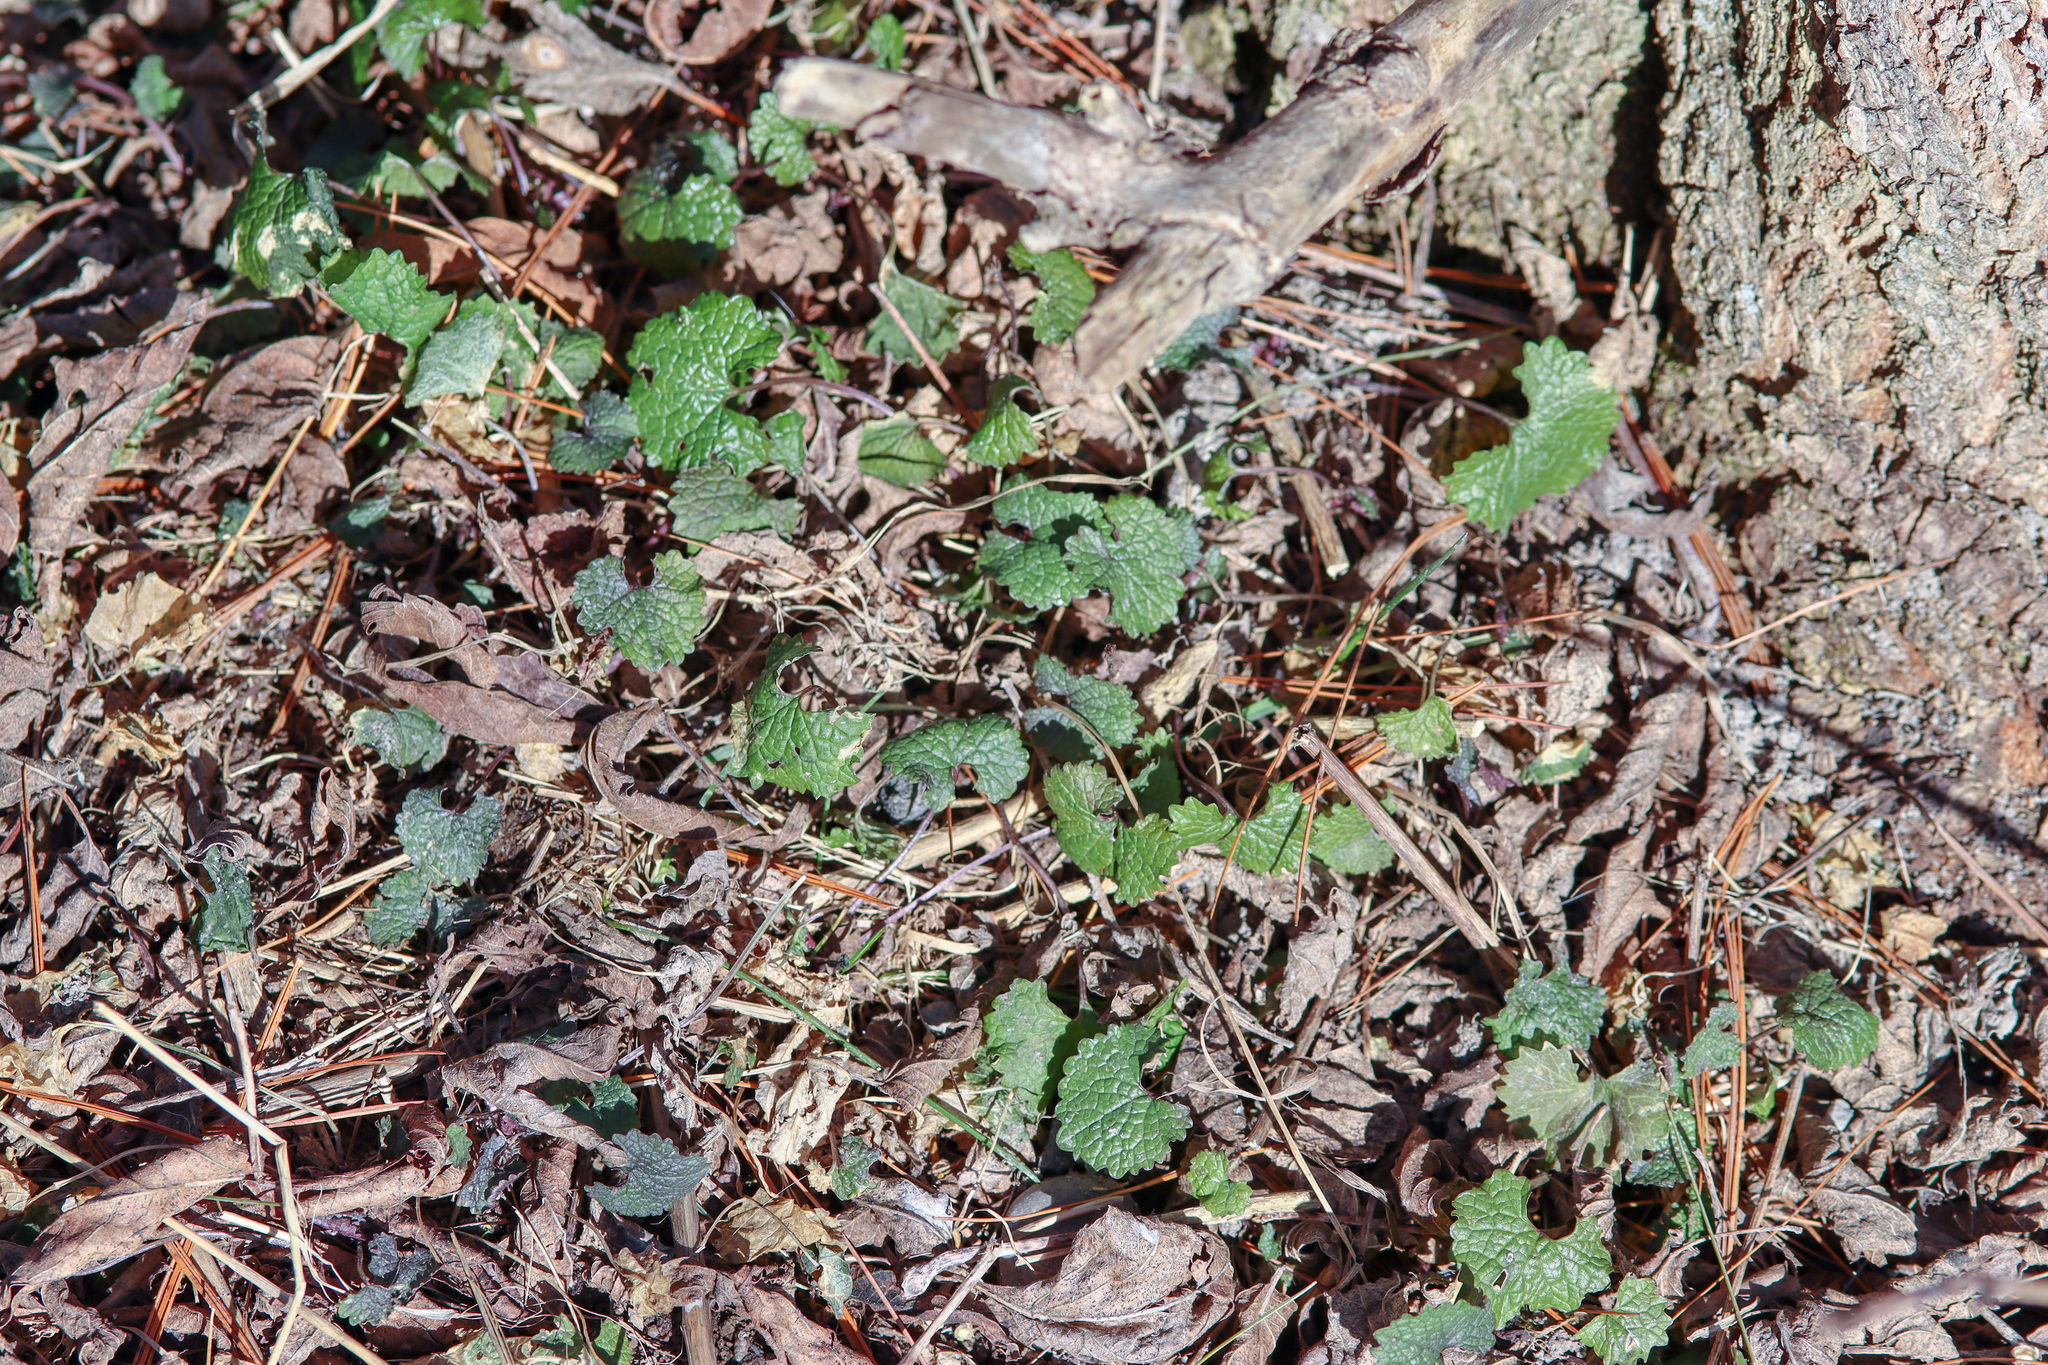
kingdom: Plantae
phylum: Tracheophyta
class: Magnoliopsida
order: Brassicales
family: Brassicaceae
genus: Alliaria
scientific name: Alliaria petiolata
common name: Garlic mustard
